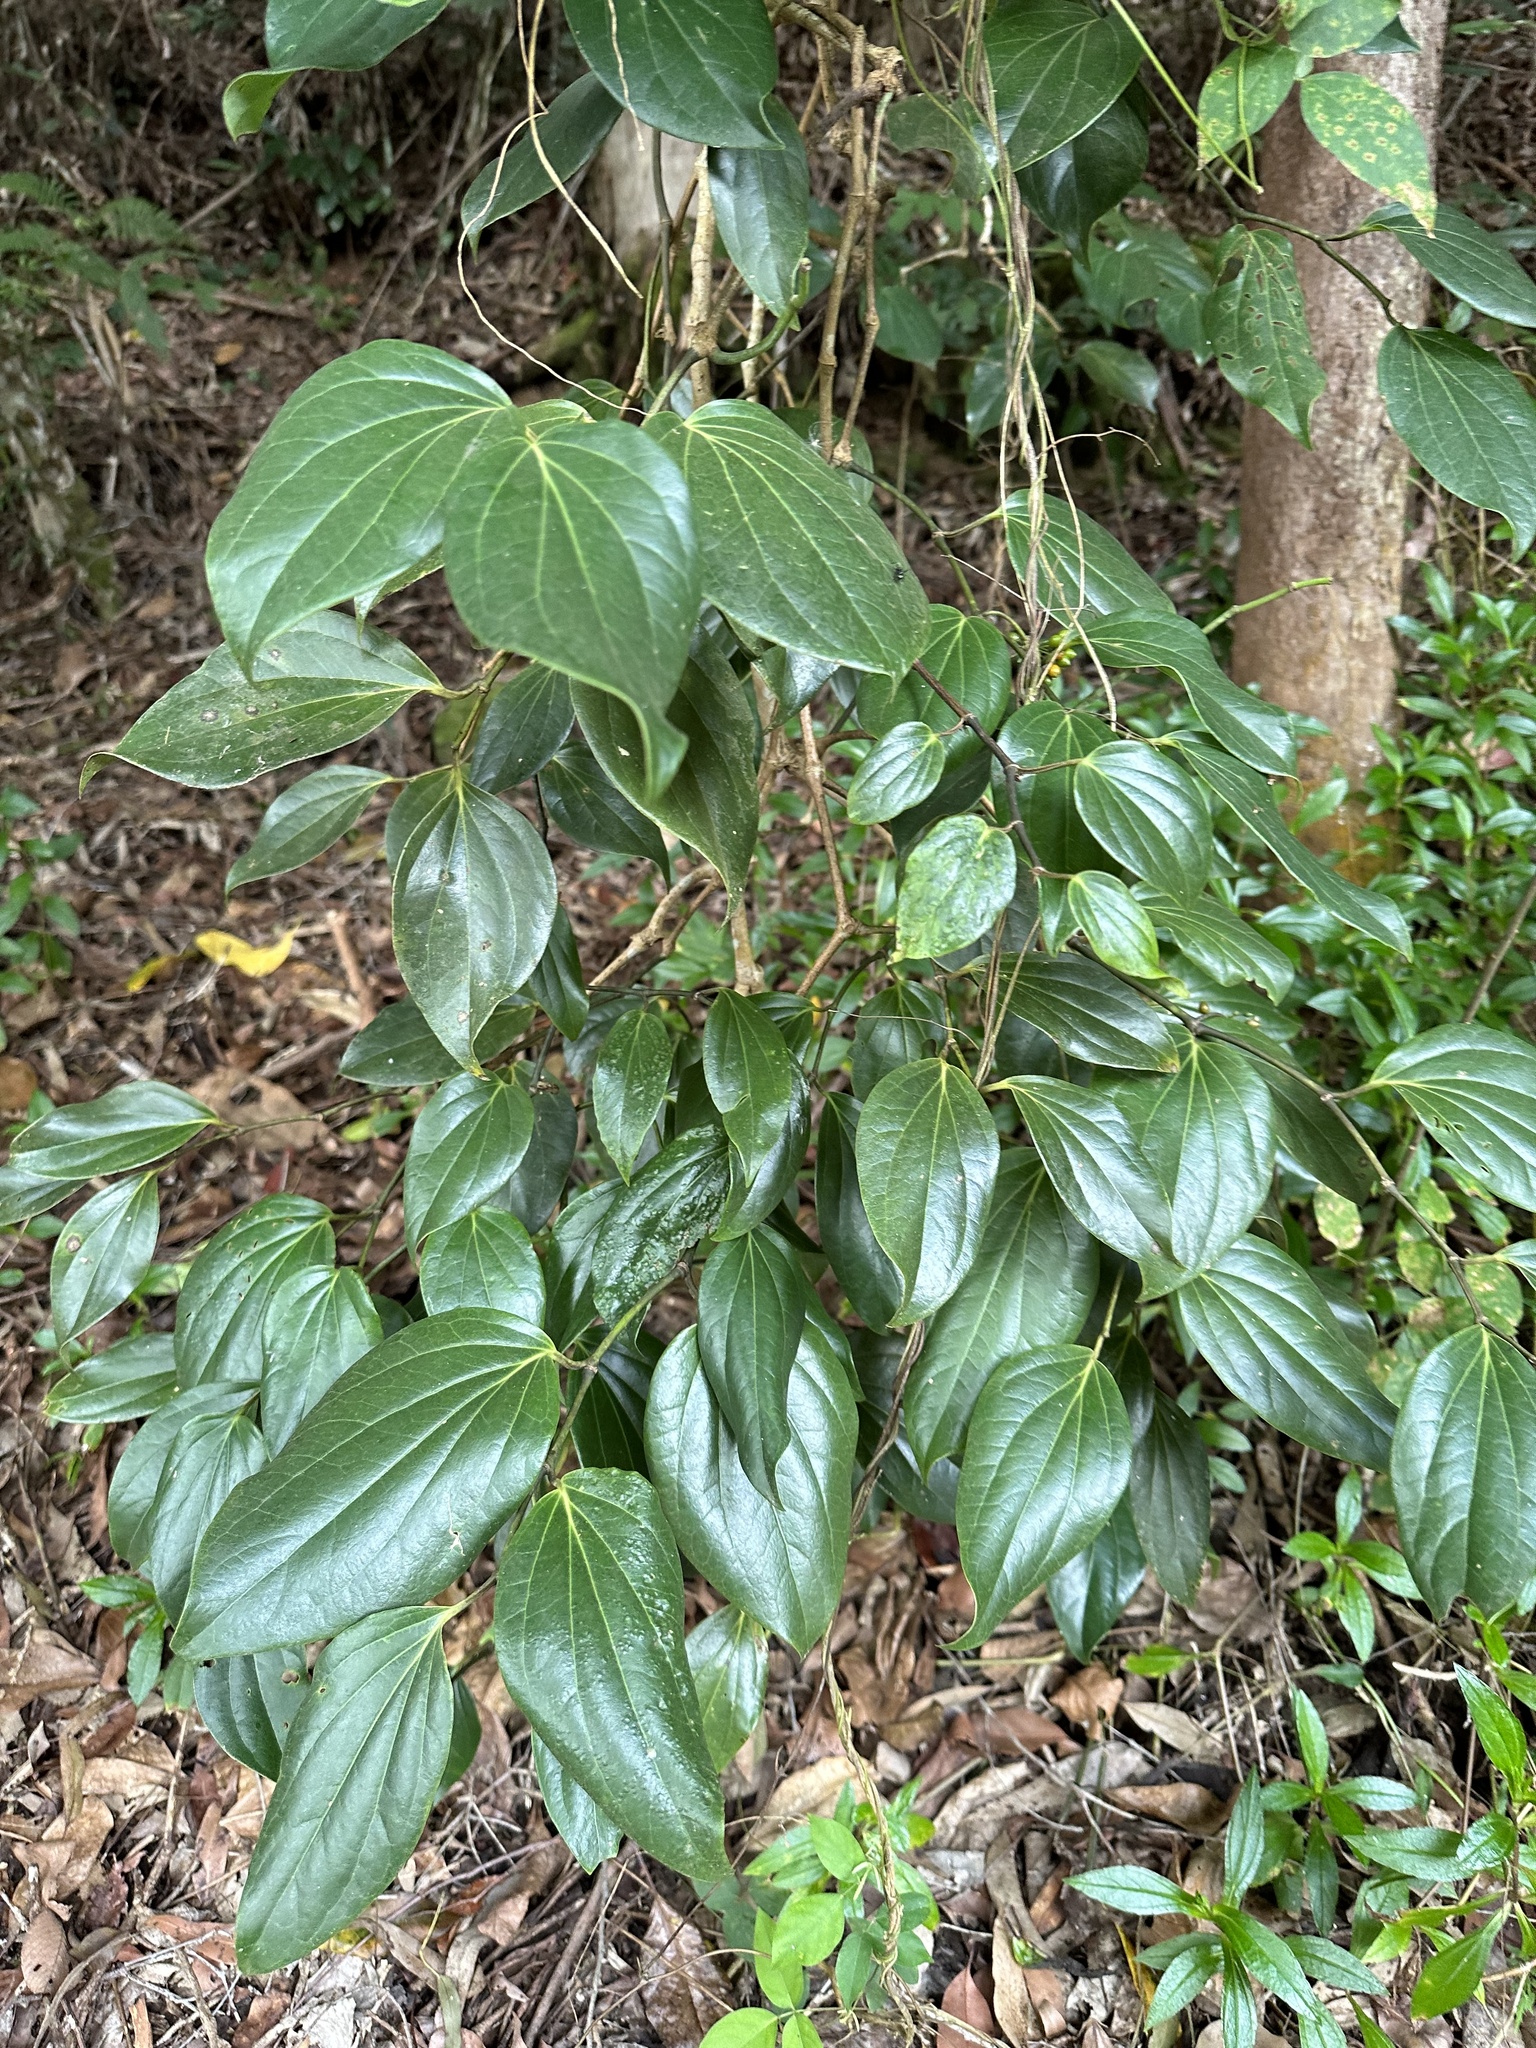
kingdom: Plantae
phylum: Tracheophyta
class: Magnoliopsida
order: Piperales
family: Piperaceae
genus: Piper
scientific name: Piper hederaceum
